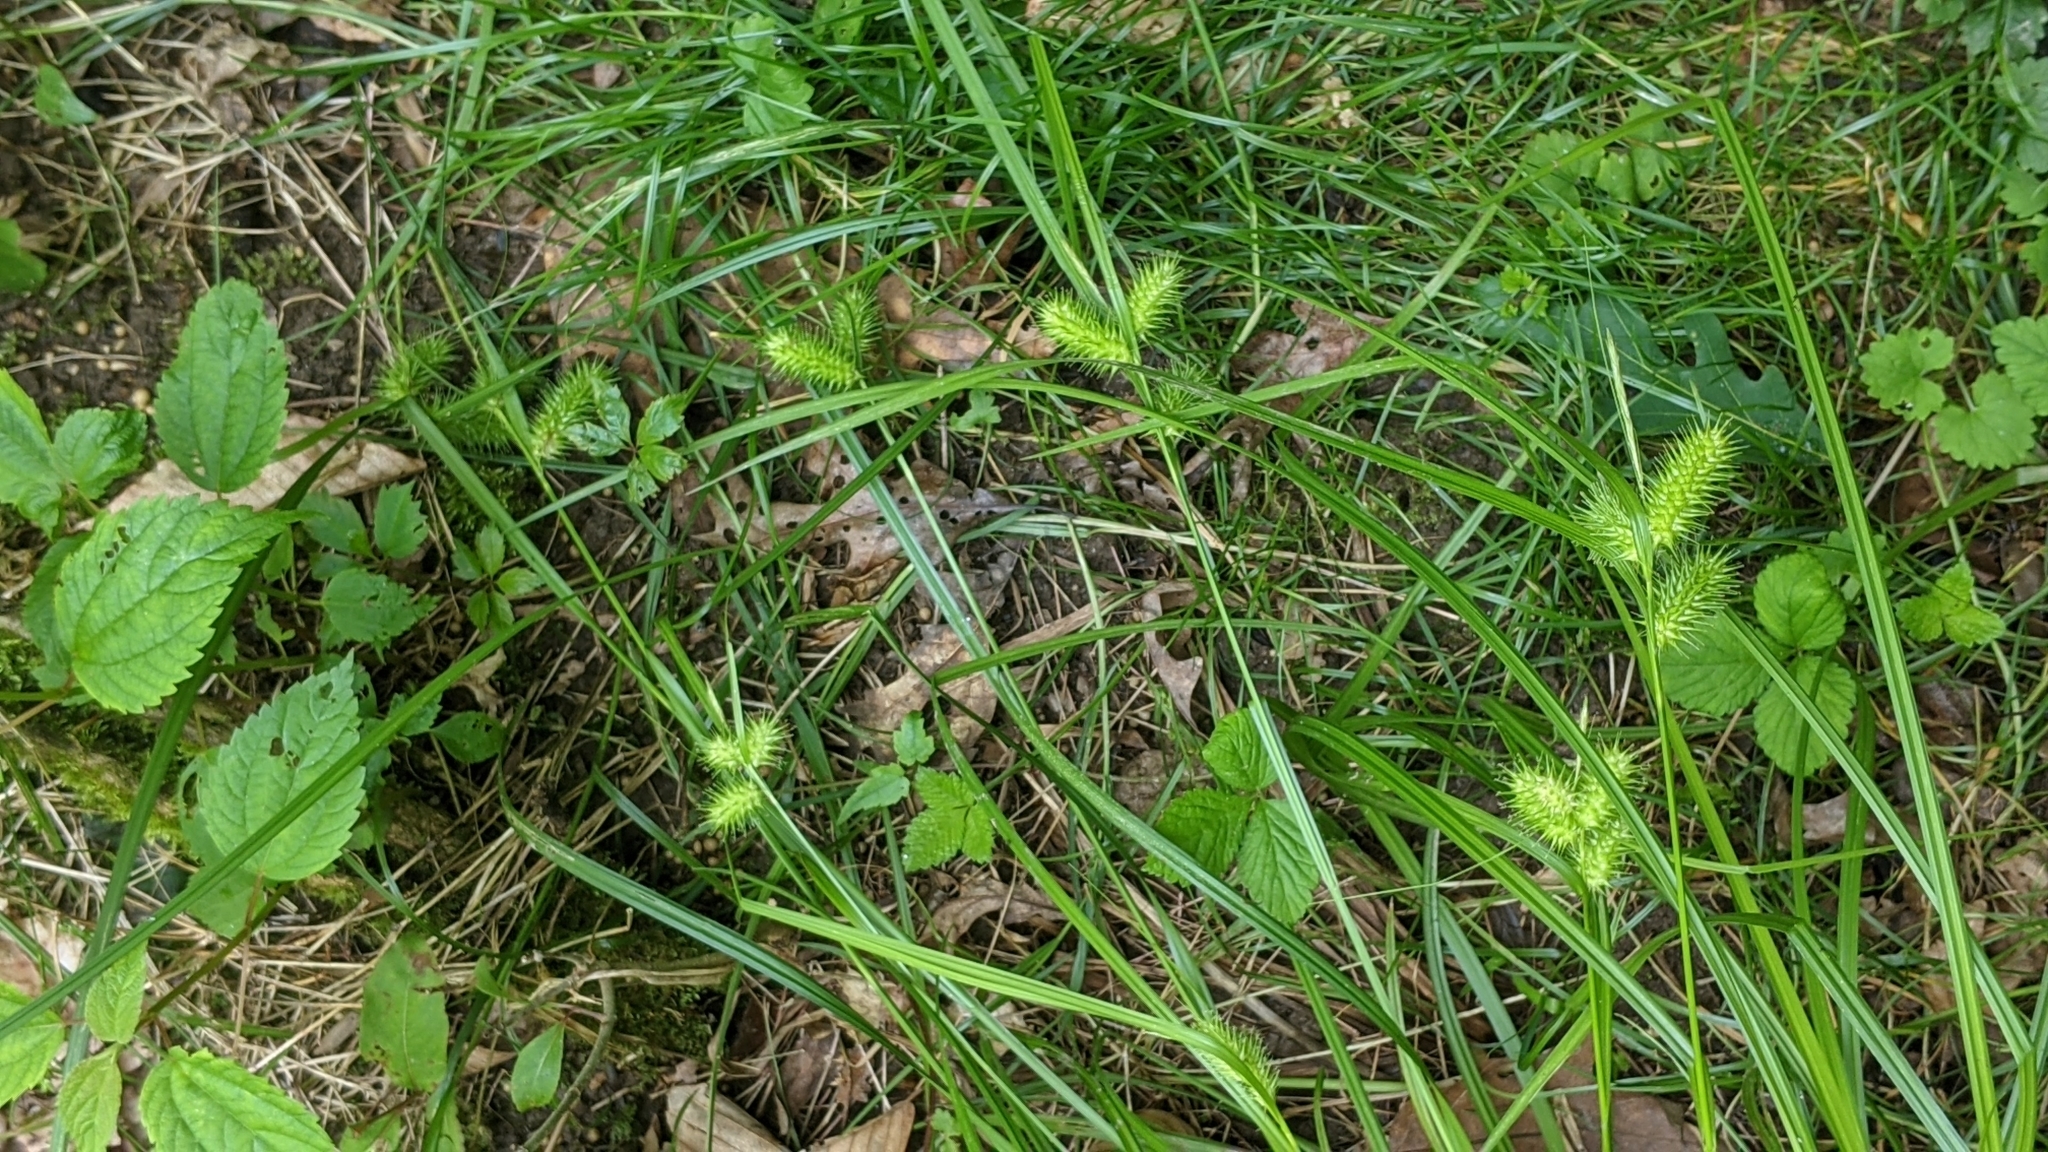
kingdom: Plantae
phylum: Tracheophyta
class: Liliopsida
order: Poales
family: Cyperaceae
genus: Carex
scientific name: Carex lurida
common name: Sallow sedge
